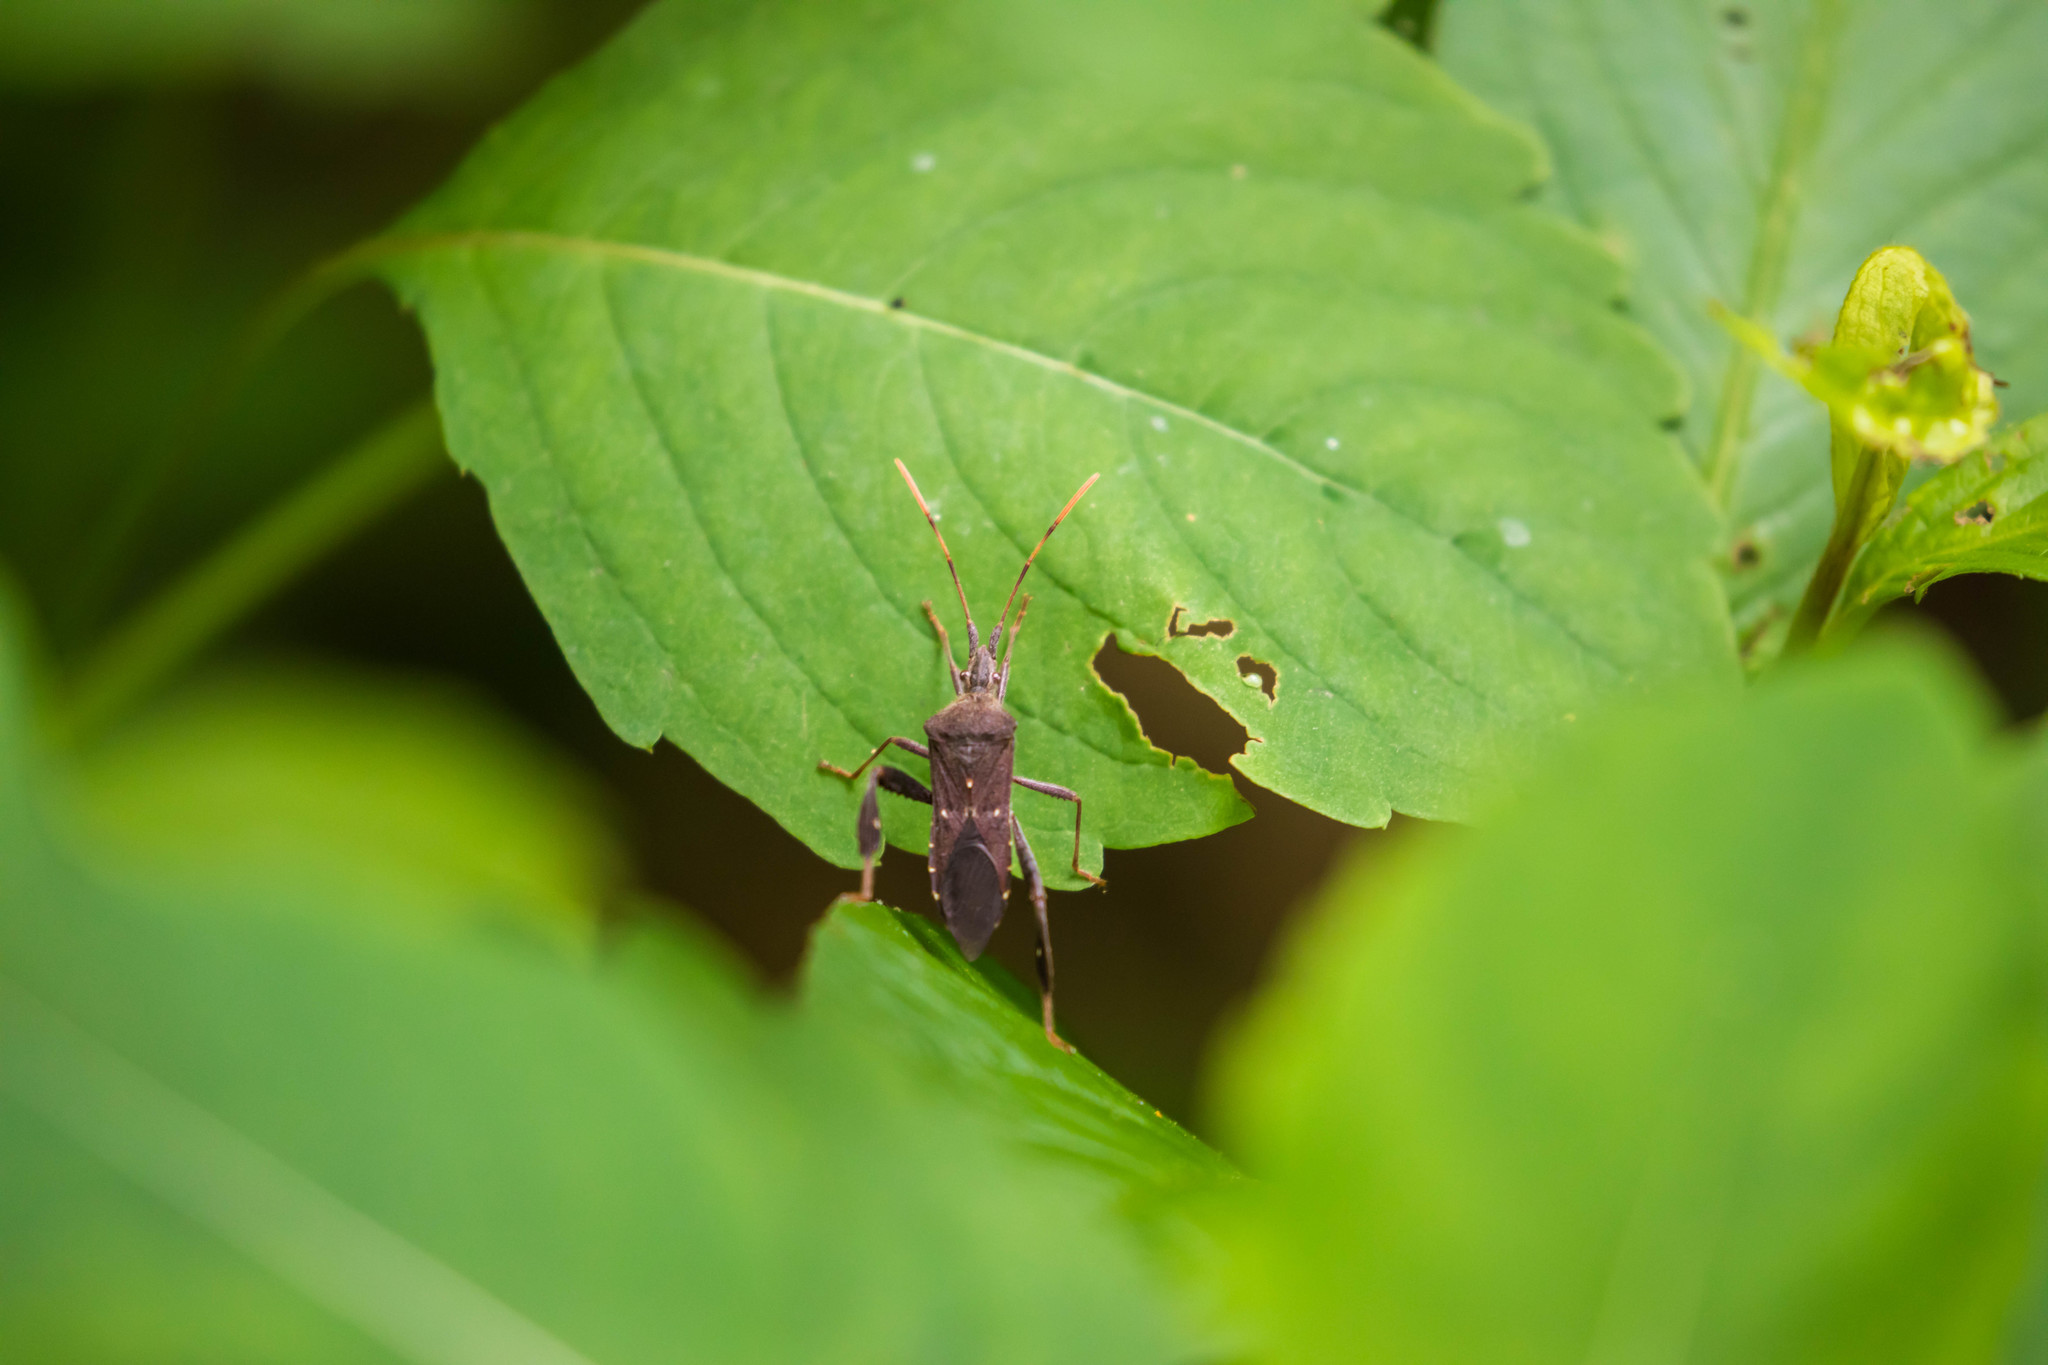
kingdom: Animalia
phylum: Arthropoda
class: Insecta
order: Hemiptera
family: Coreidae
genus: Leptoglossus
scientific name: Leptoglossus oppositus
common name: Northern leaf-footed bug
